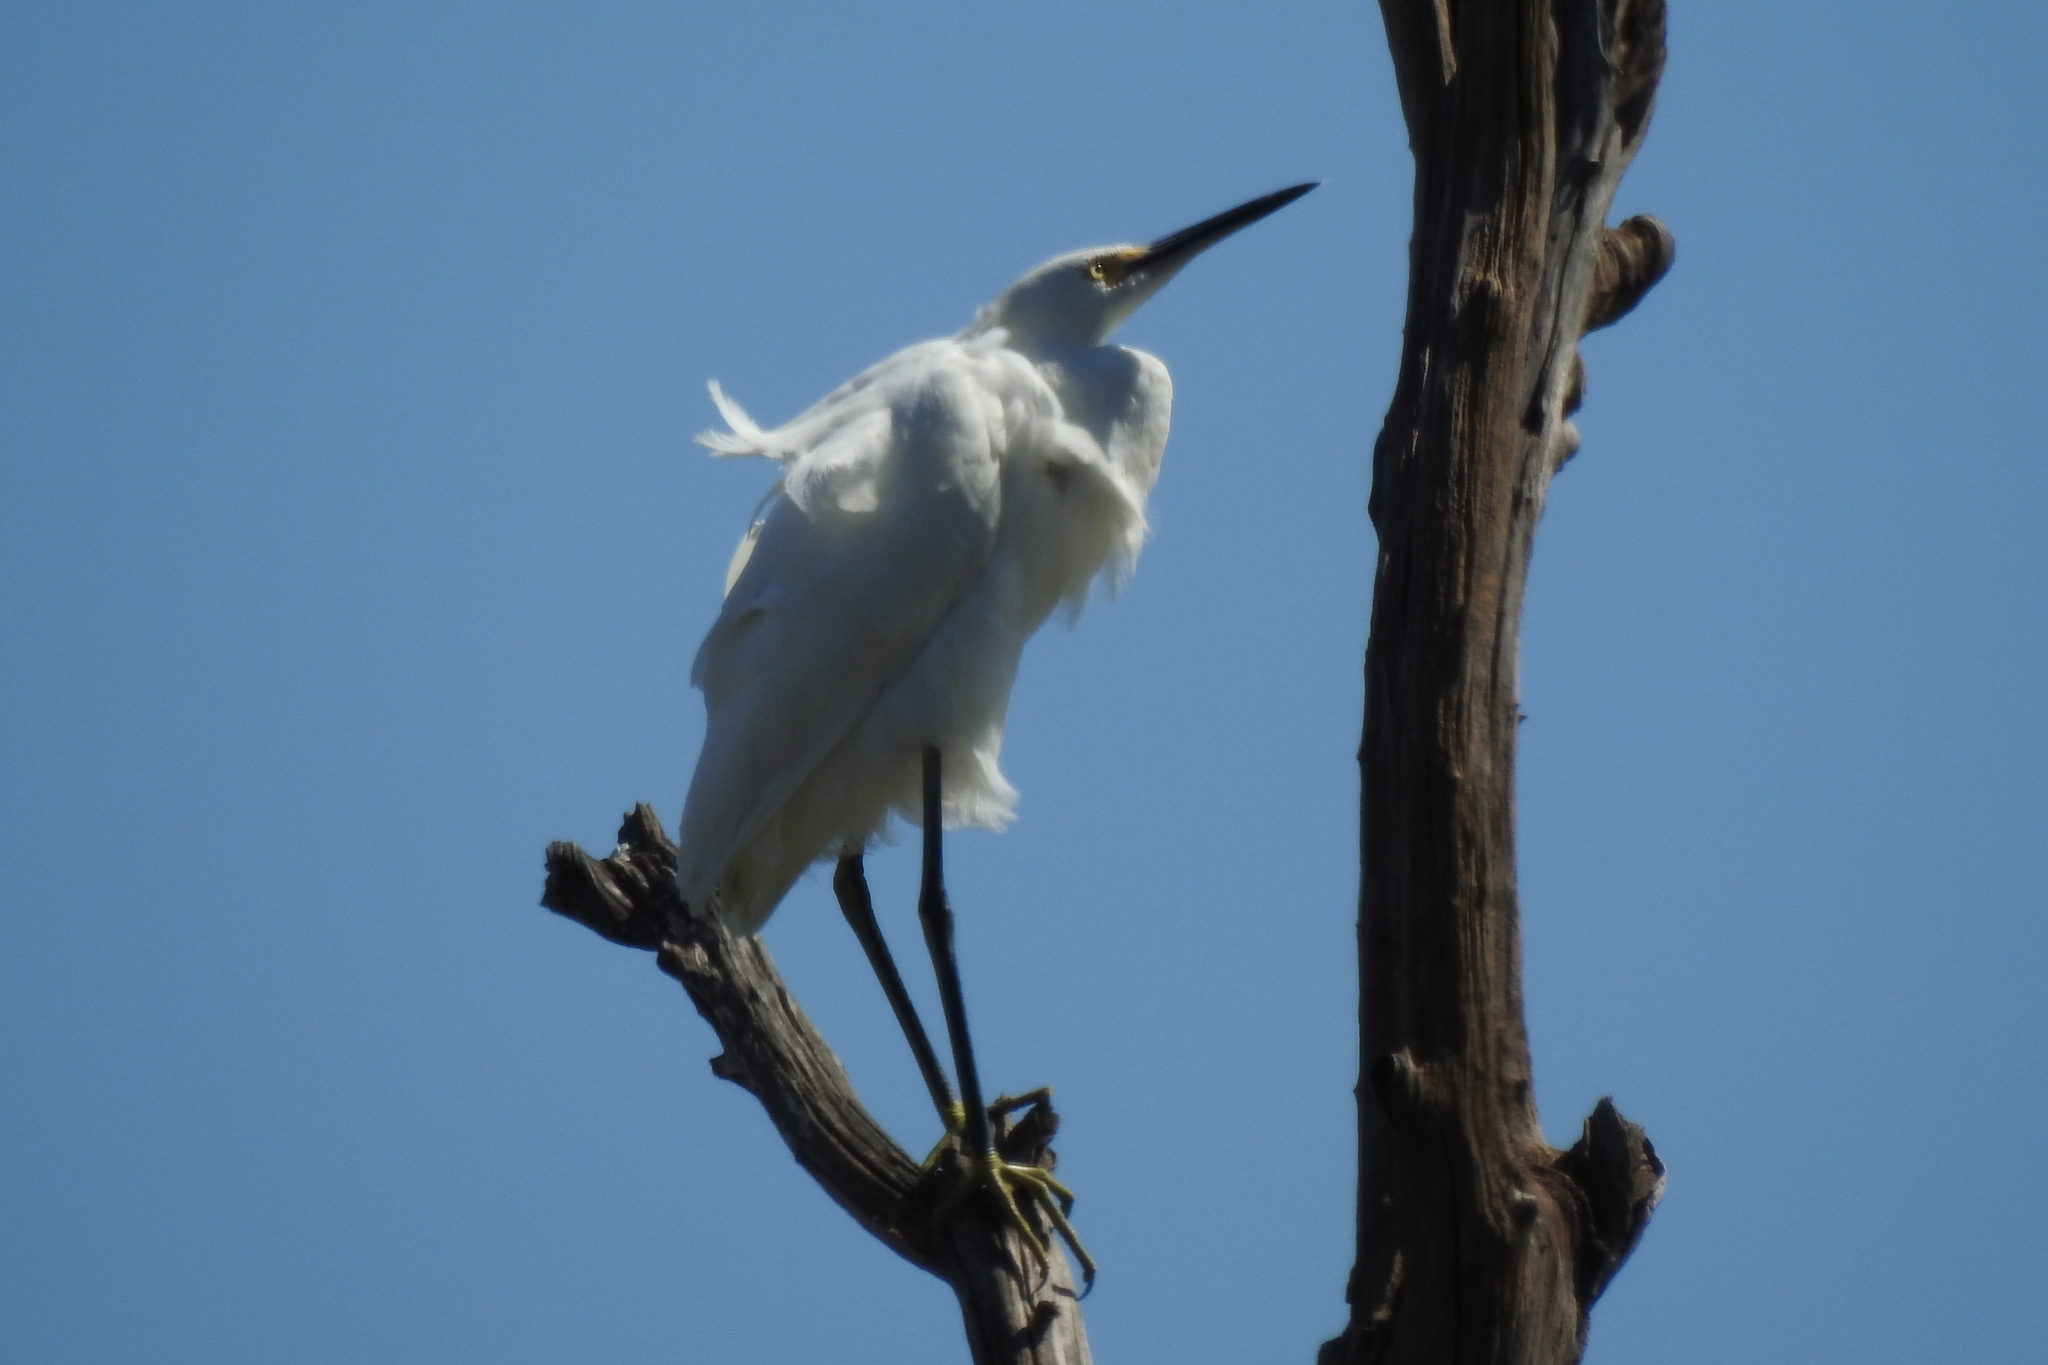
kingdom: Animalia
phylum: Chordata
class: Aves
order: Pelecaniformes
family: Ardeidae
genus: Egretta
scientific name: Egretta thula
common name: Snowy egret
